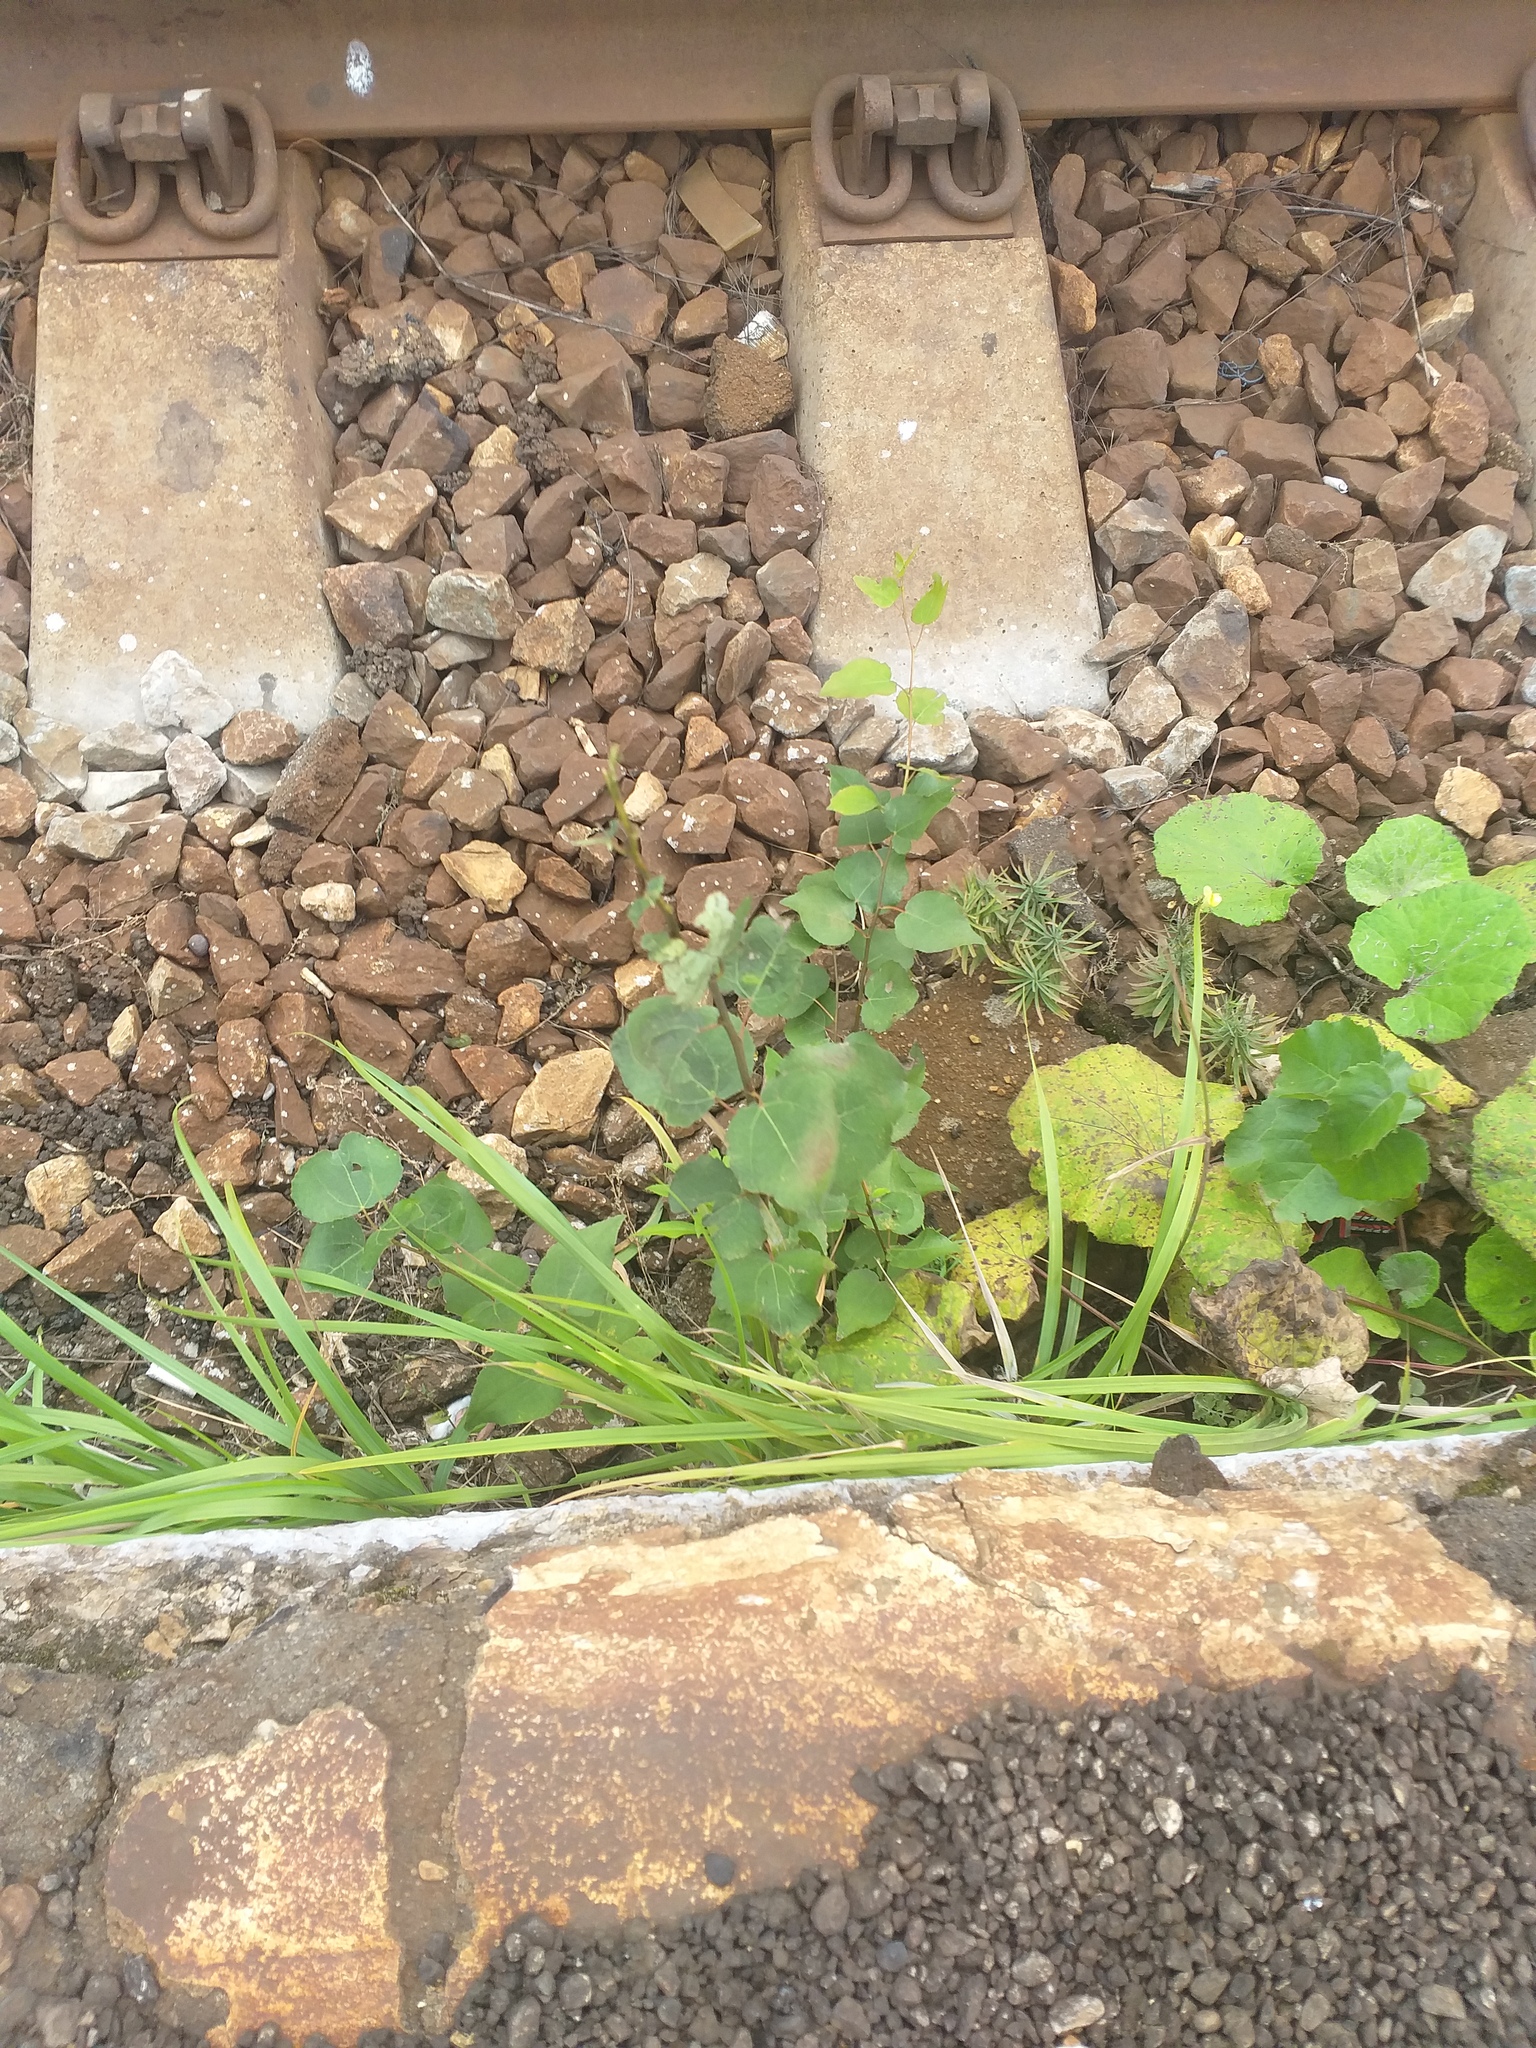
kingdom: Plantae
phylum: Tracheophyta
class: Magnoliopsida
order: Malpighiales
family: Salicaceae
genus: Populus
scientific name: Populus tremula
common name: European aspen
